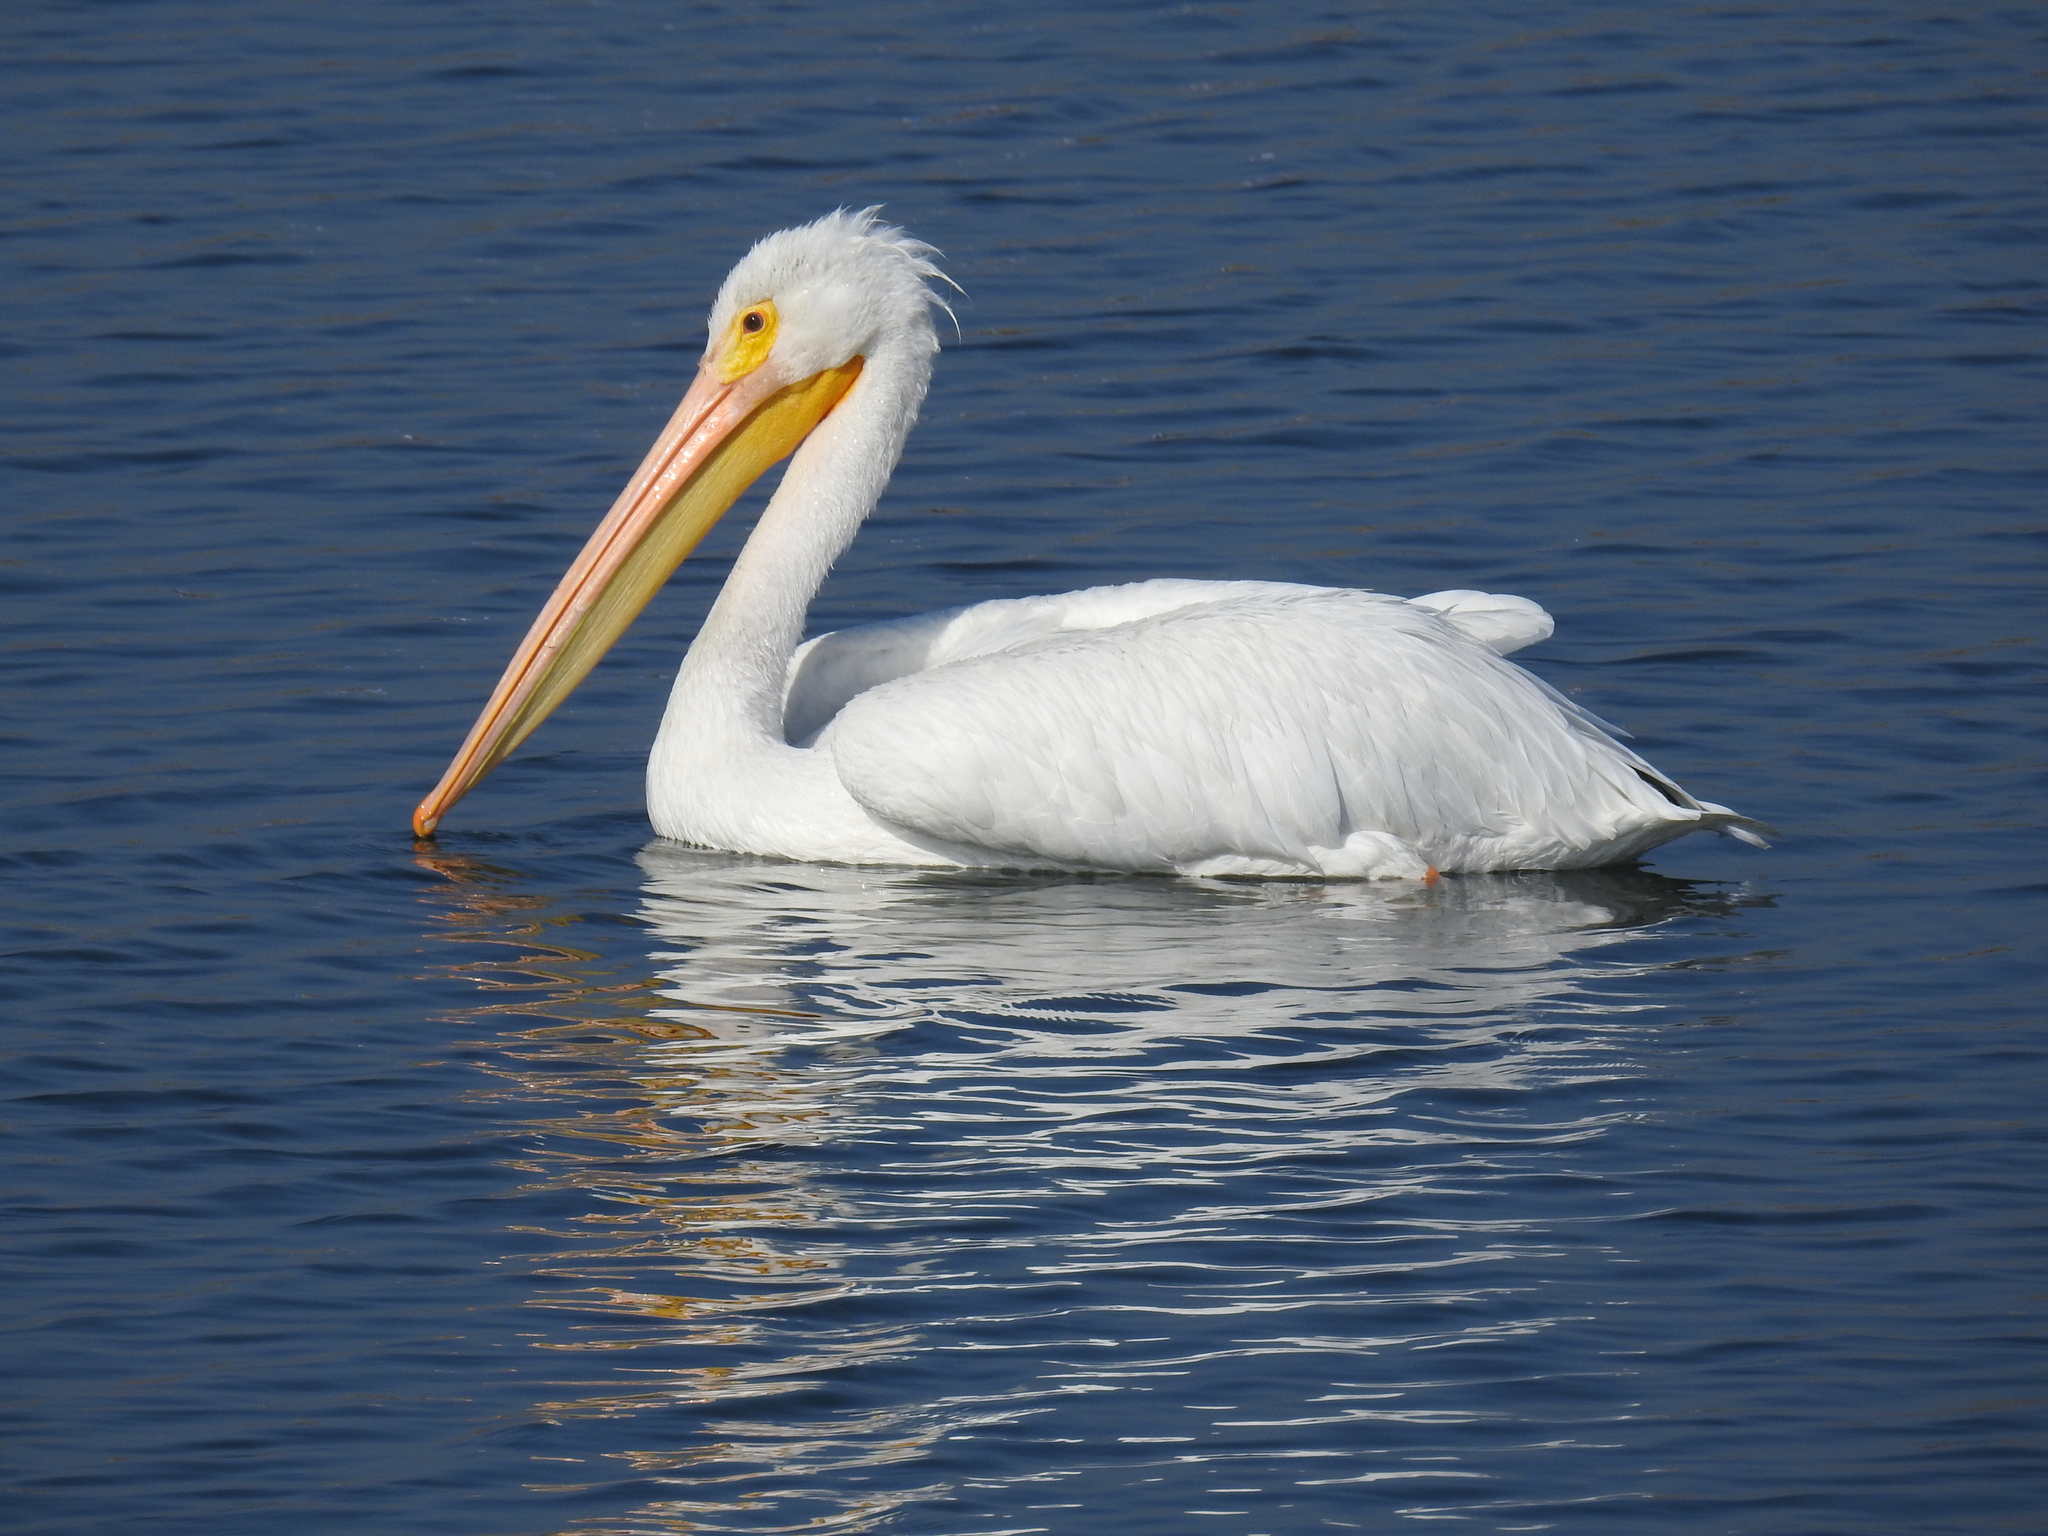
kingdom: Animalia
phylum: Chordata
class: Aves
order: Pelecaniformes
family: Pelecanidae
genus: Pelecanus
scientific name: Pelecanus erythrorhynchos
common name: American white pelican
